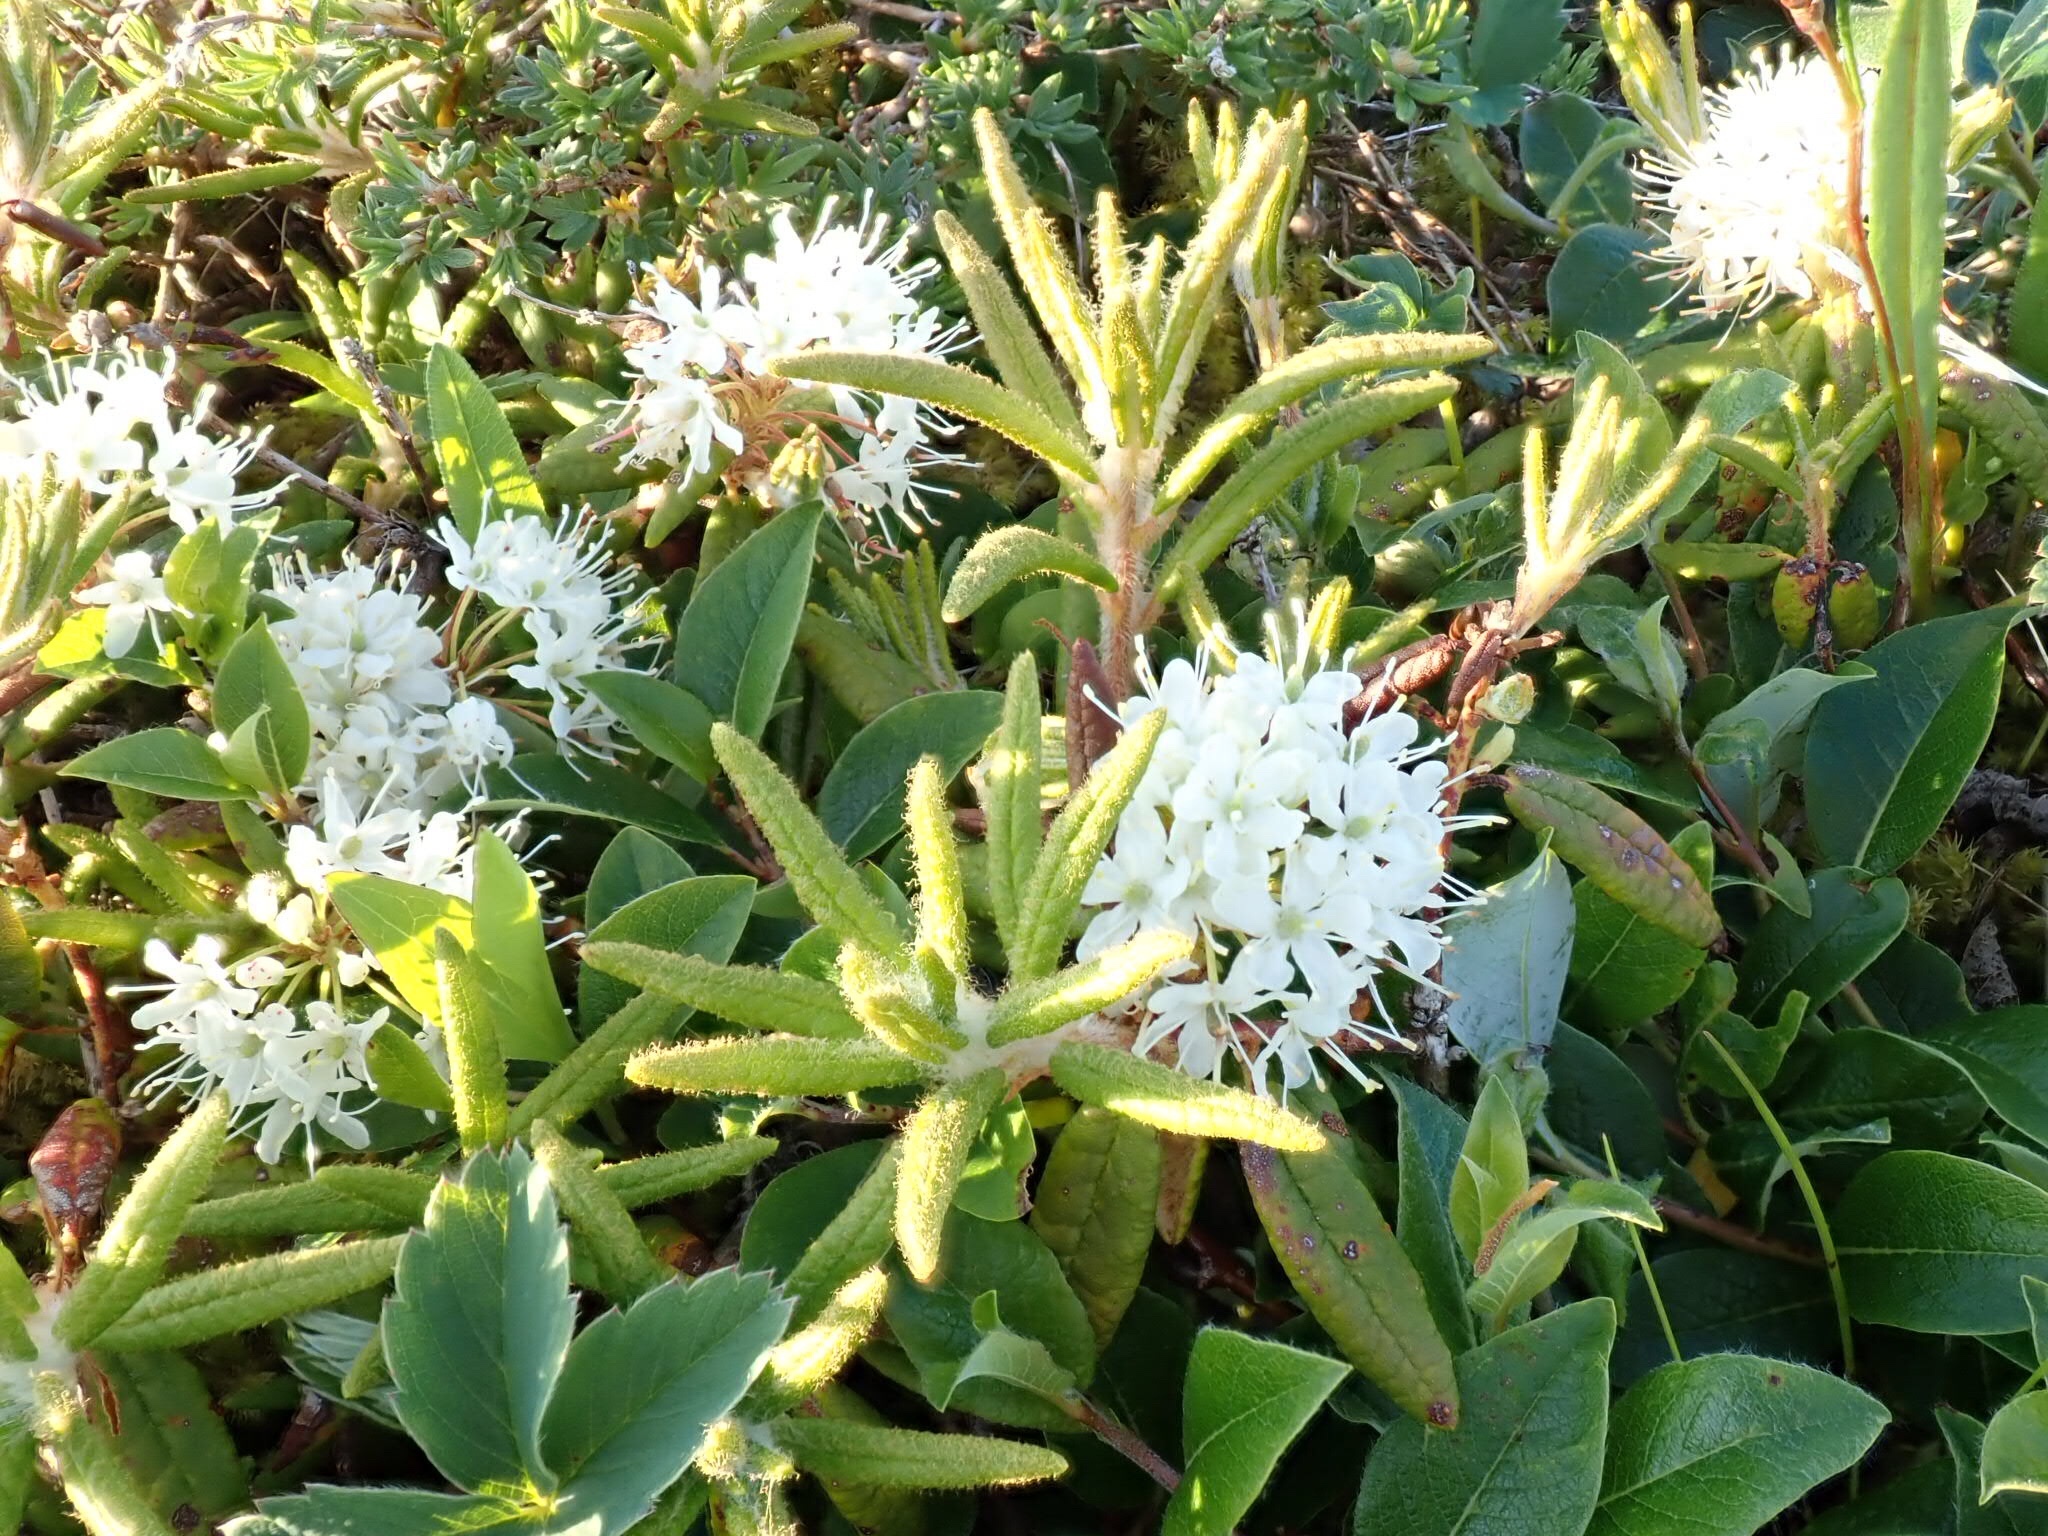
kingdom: Plantae
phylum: Tracheophyta
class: Magnoliopsida
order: Ericales
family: Ericaceae
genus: Rhododendron
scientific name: Rhododendron groenlandicum
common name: Bog labrador tea
